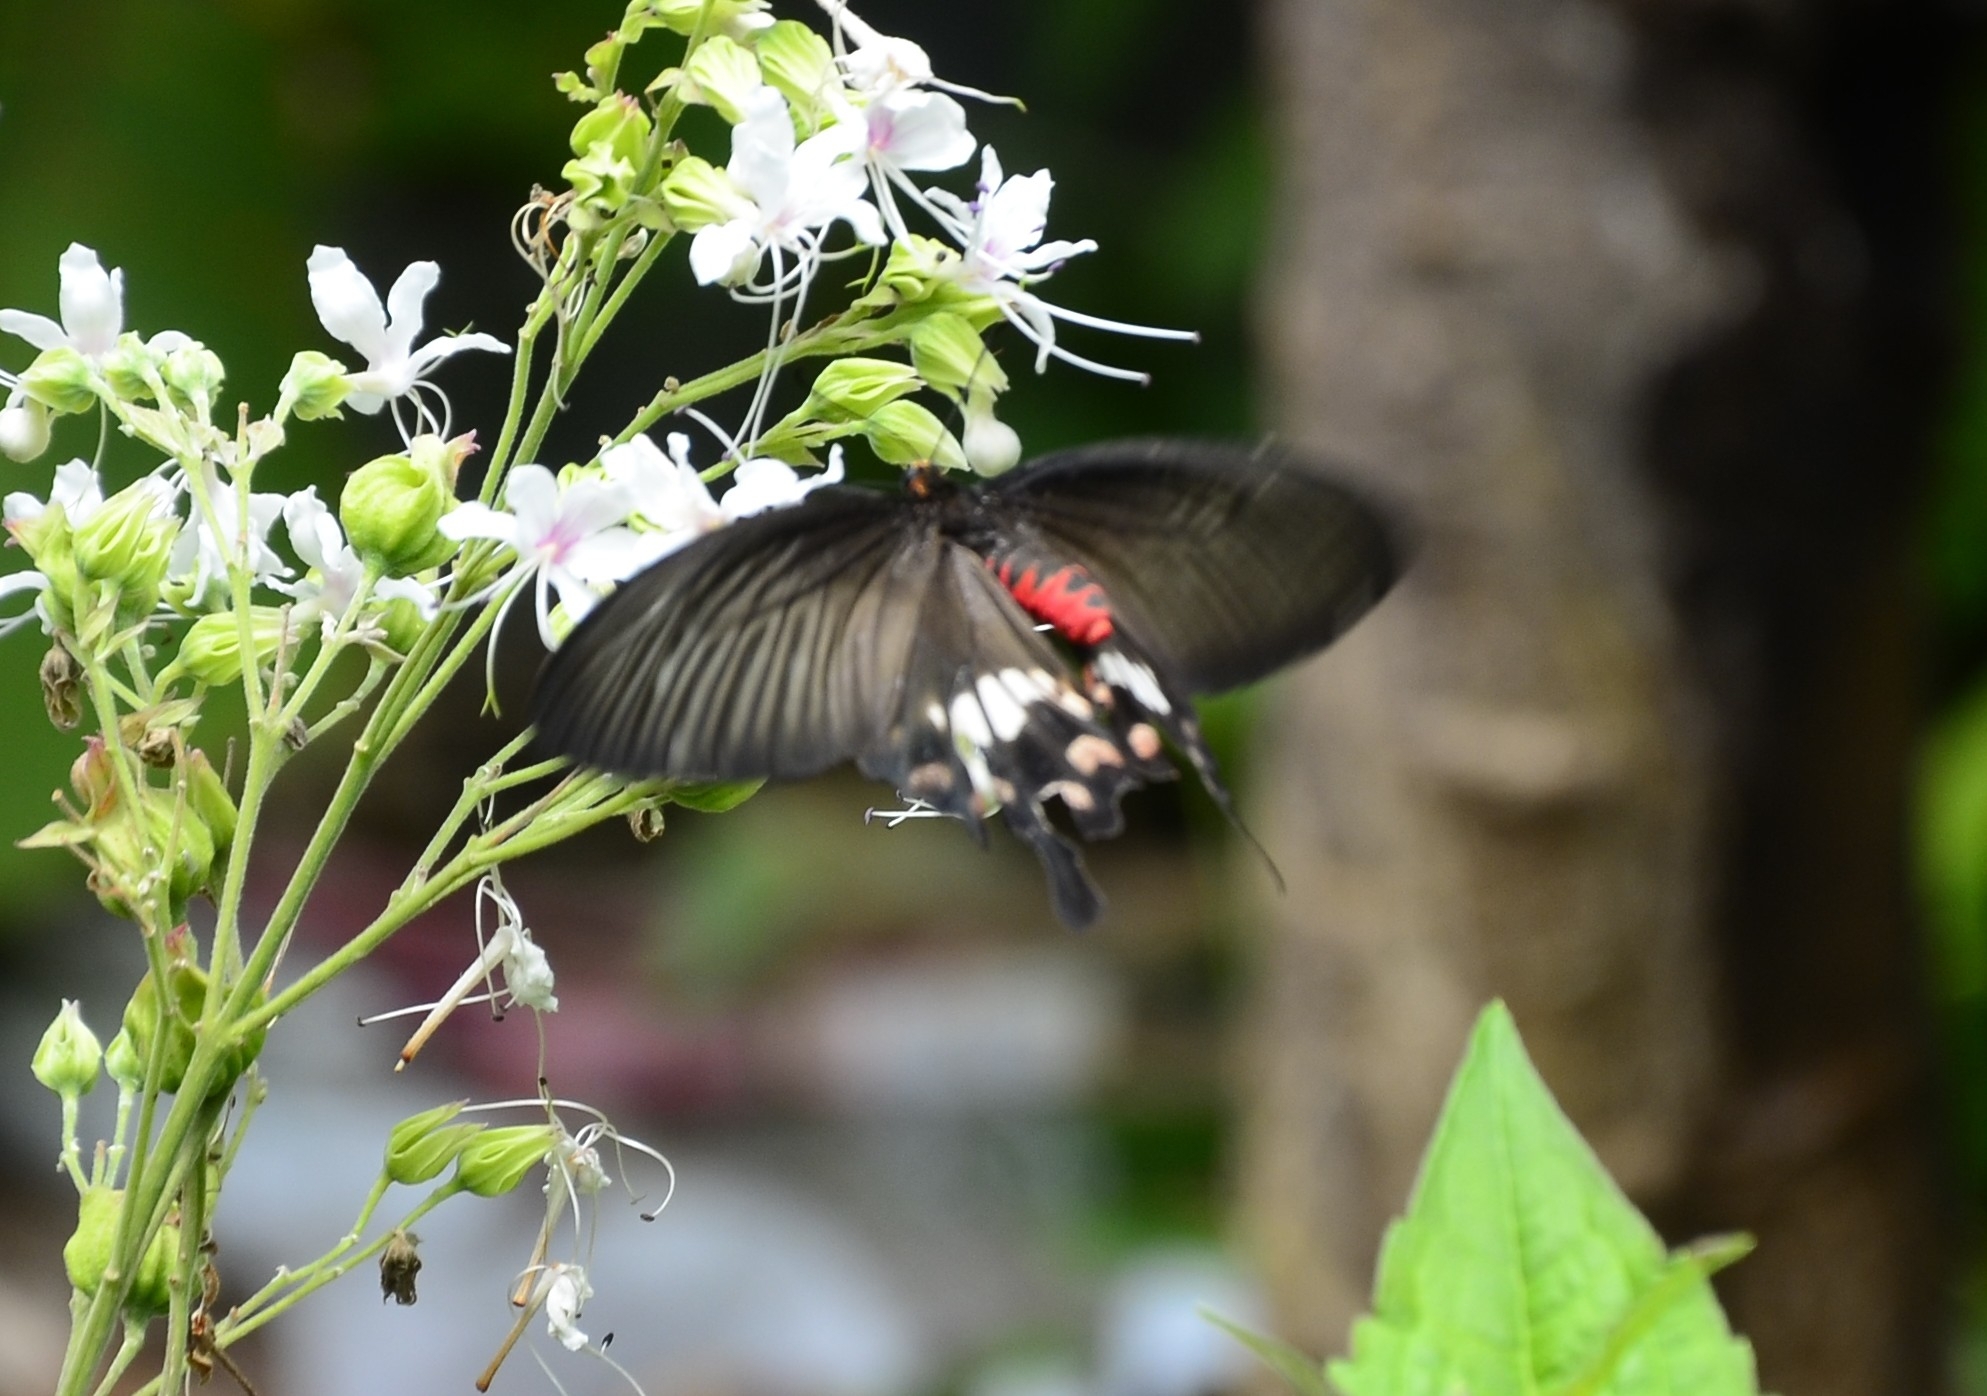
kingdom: Animalia
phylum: Arthropoda
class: Insecta
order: Lepidoptera
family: Papilionidae
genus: Pachliopta
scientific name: Pachliopta aristolochiae
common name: Common rose
